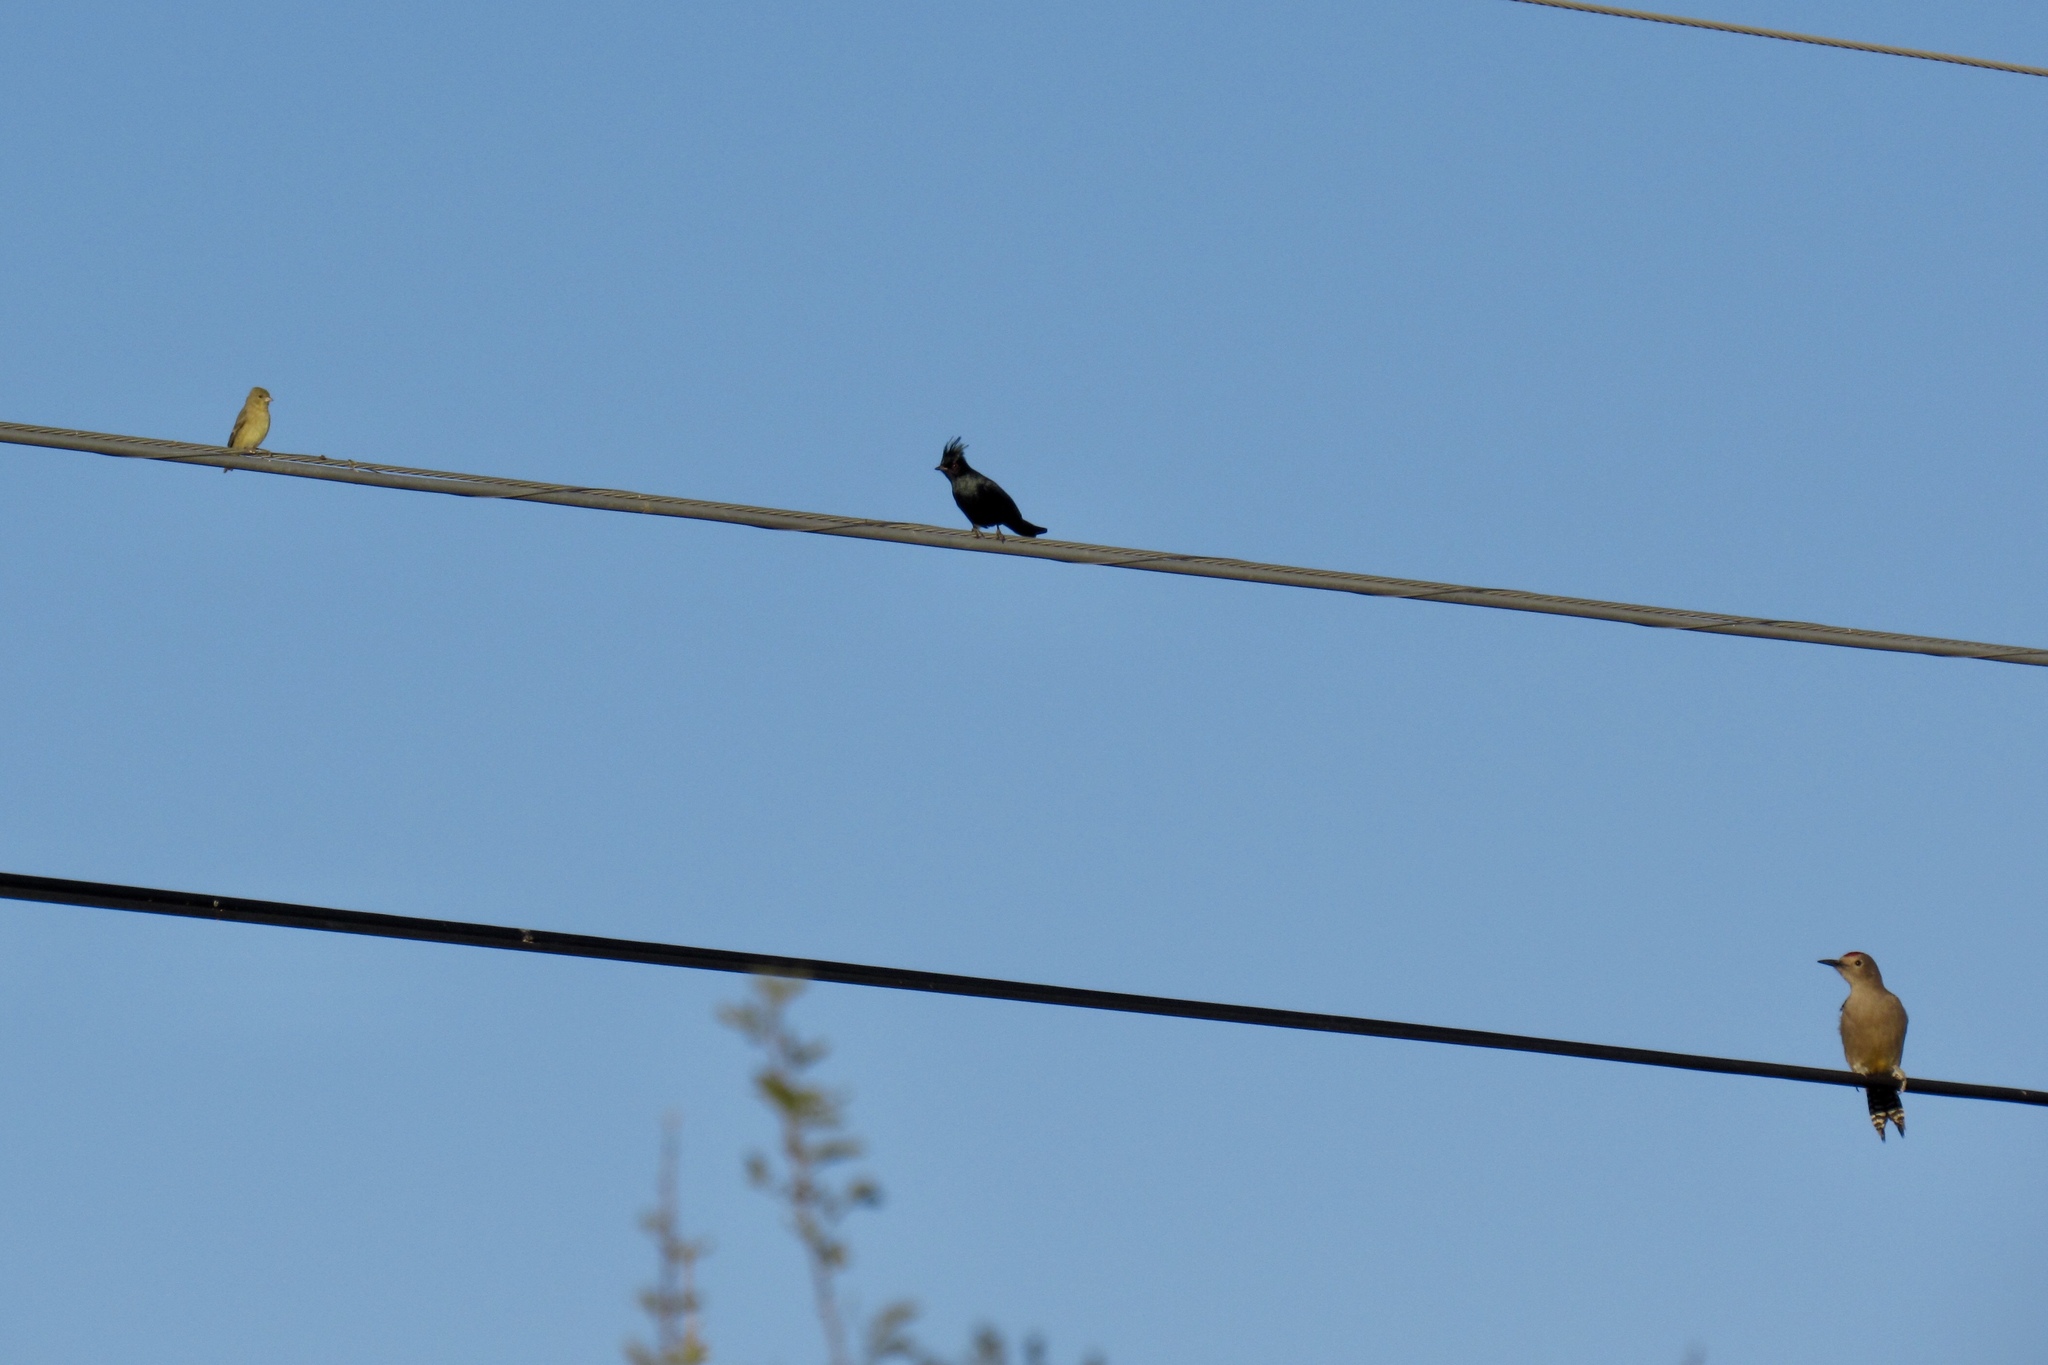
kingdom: Animalia
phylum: Chordata
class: Aves
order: Passeriformes
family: Fringillidae
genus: Spinus
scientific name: Spinus psaltria
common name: Lesser goldfinch
